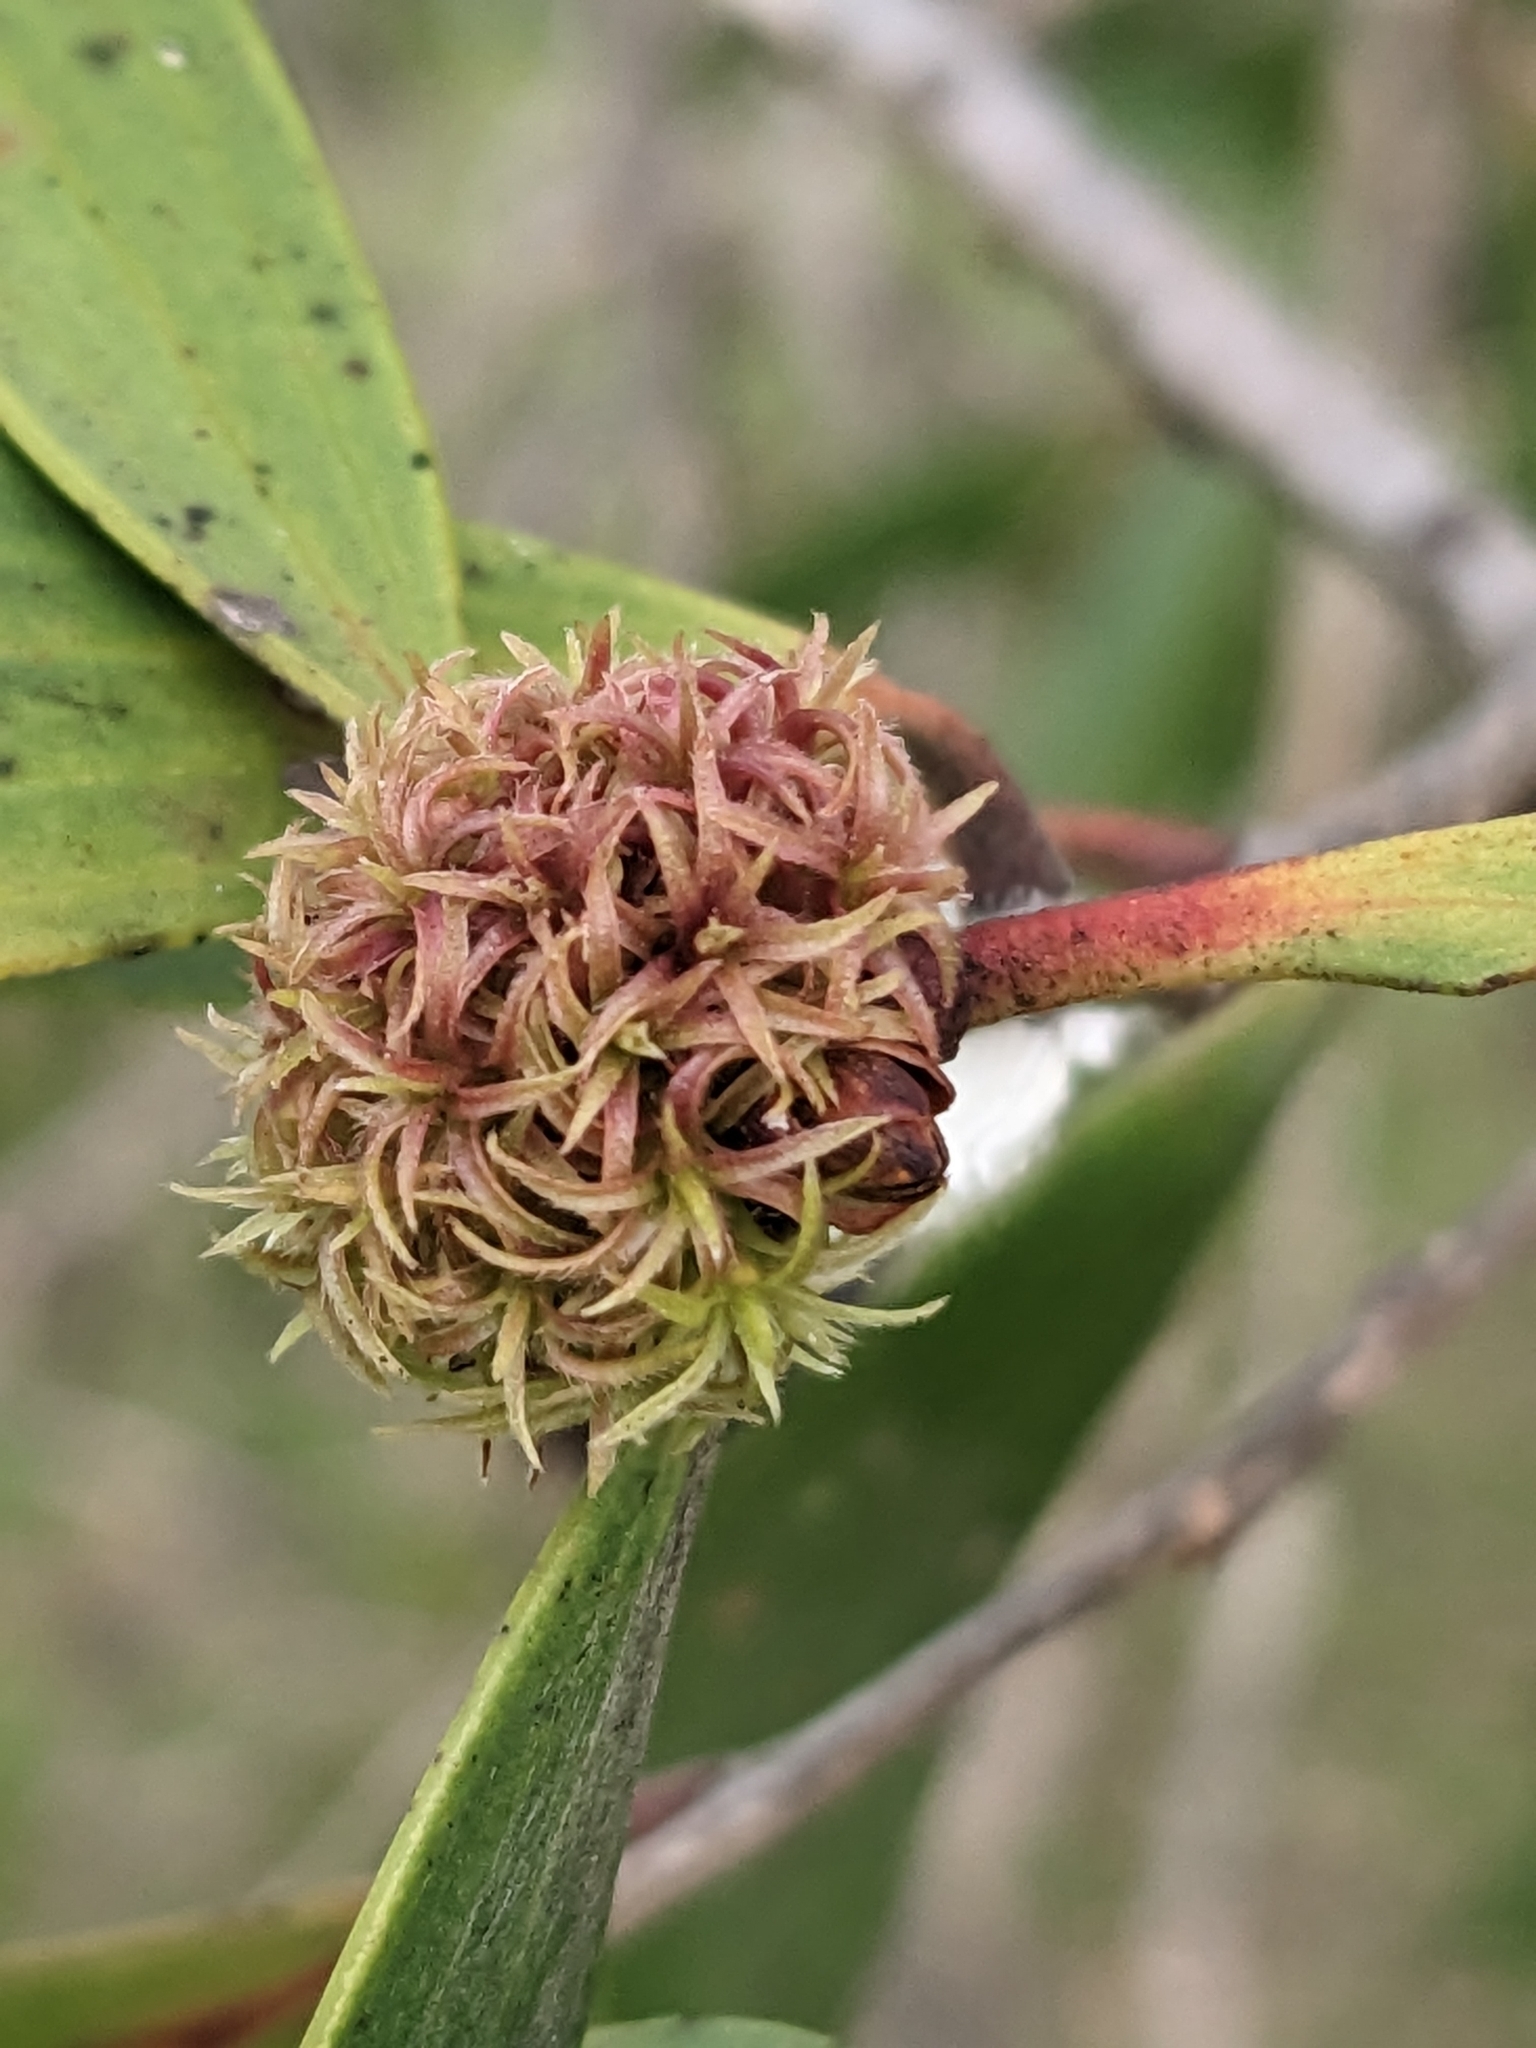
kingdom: Animalia
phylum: Arthropoda
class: Insecta
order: Hemiptera
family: Beesoniidae
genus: Beesonia
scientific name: Beesonia ferrugineus
